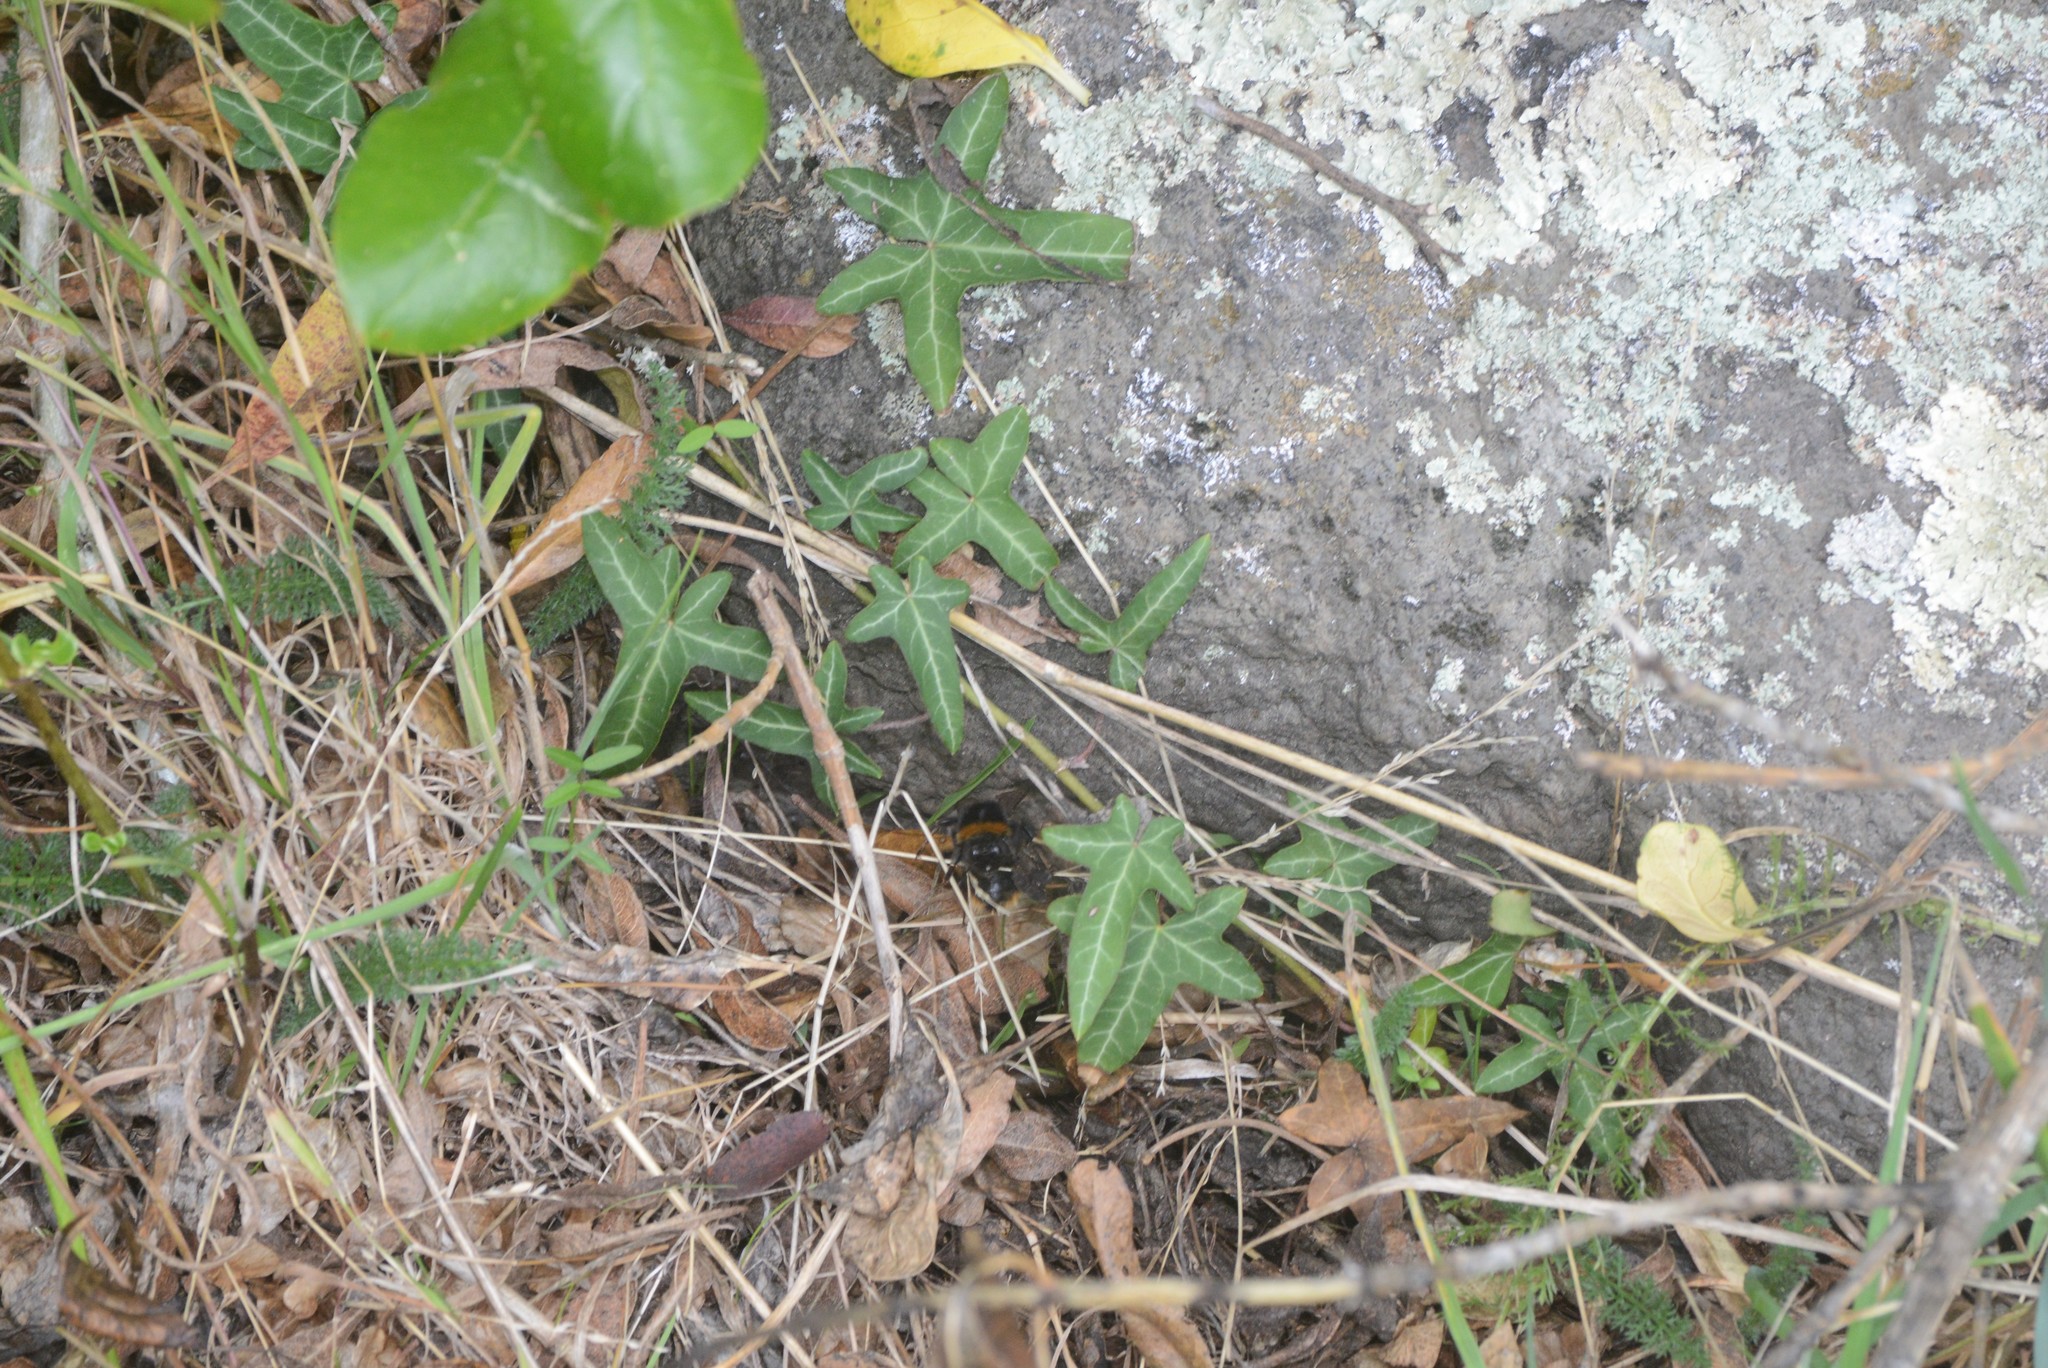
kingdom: Plantae
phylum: Tracheophyta
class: Magnoliopsida
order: Apiales
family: Araliaceae
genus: Hedera
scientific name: Hedera helix
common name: Ivy
